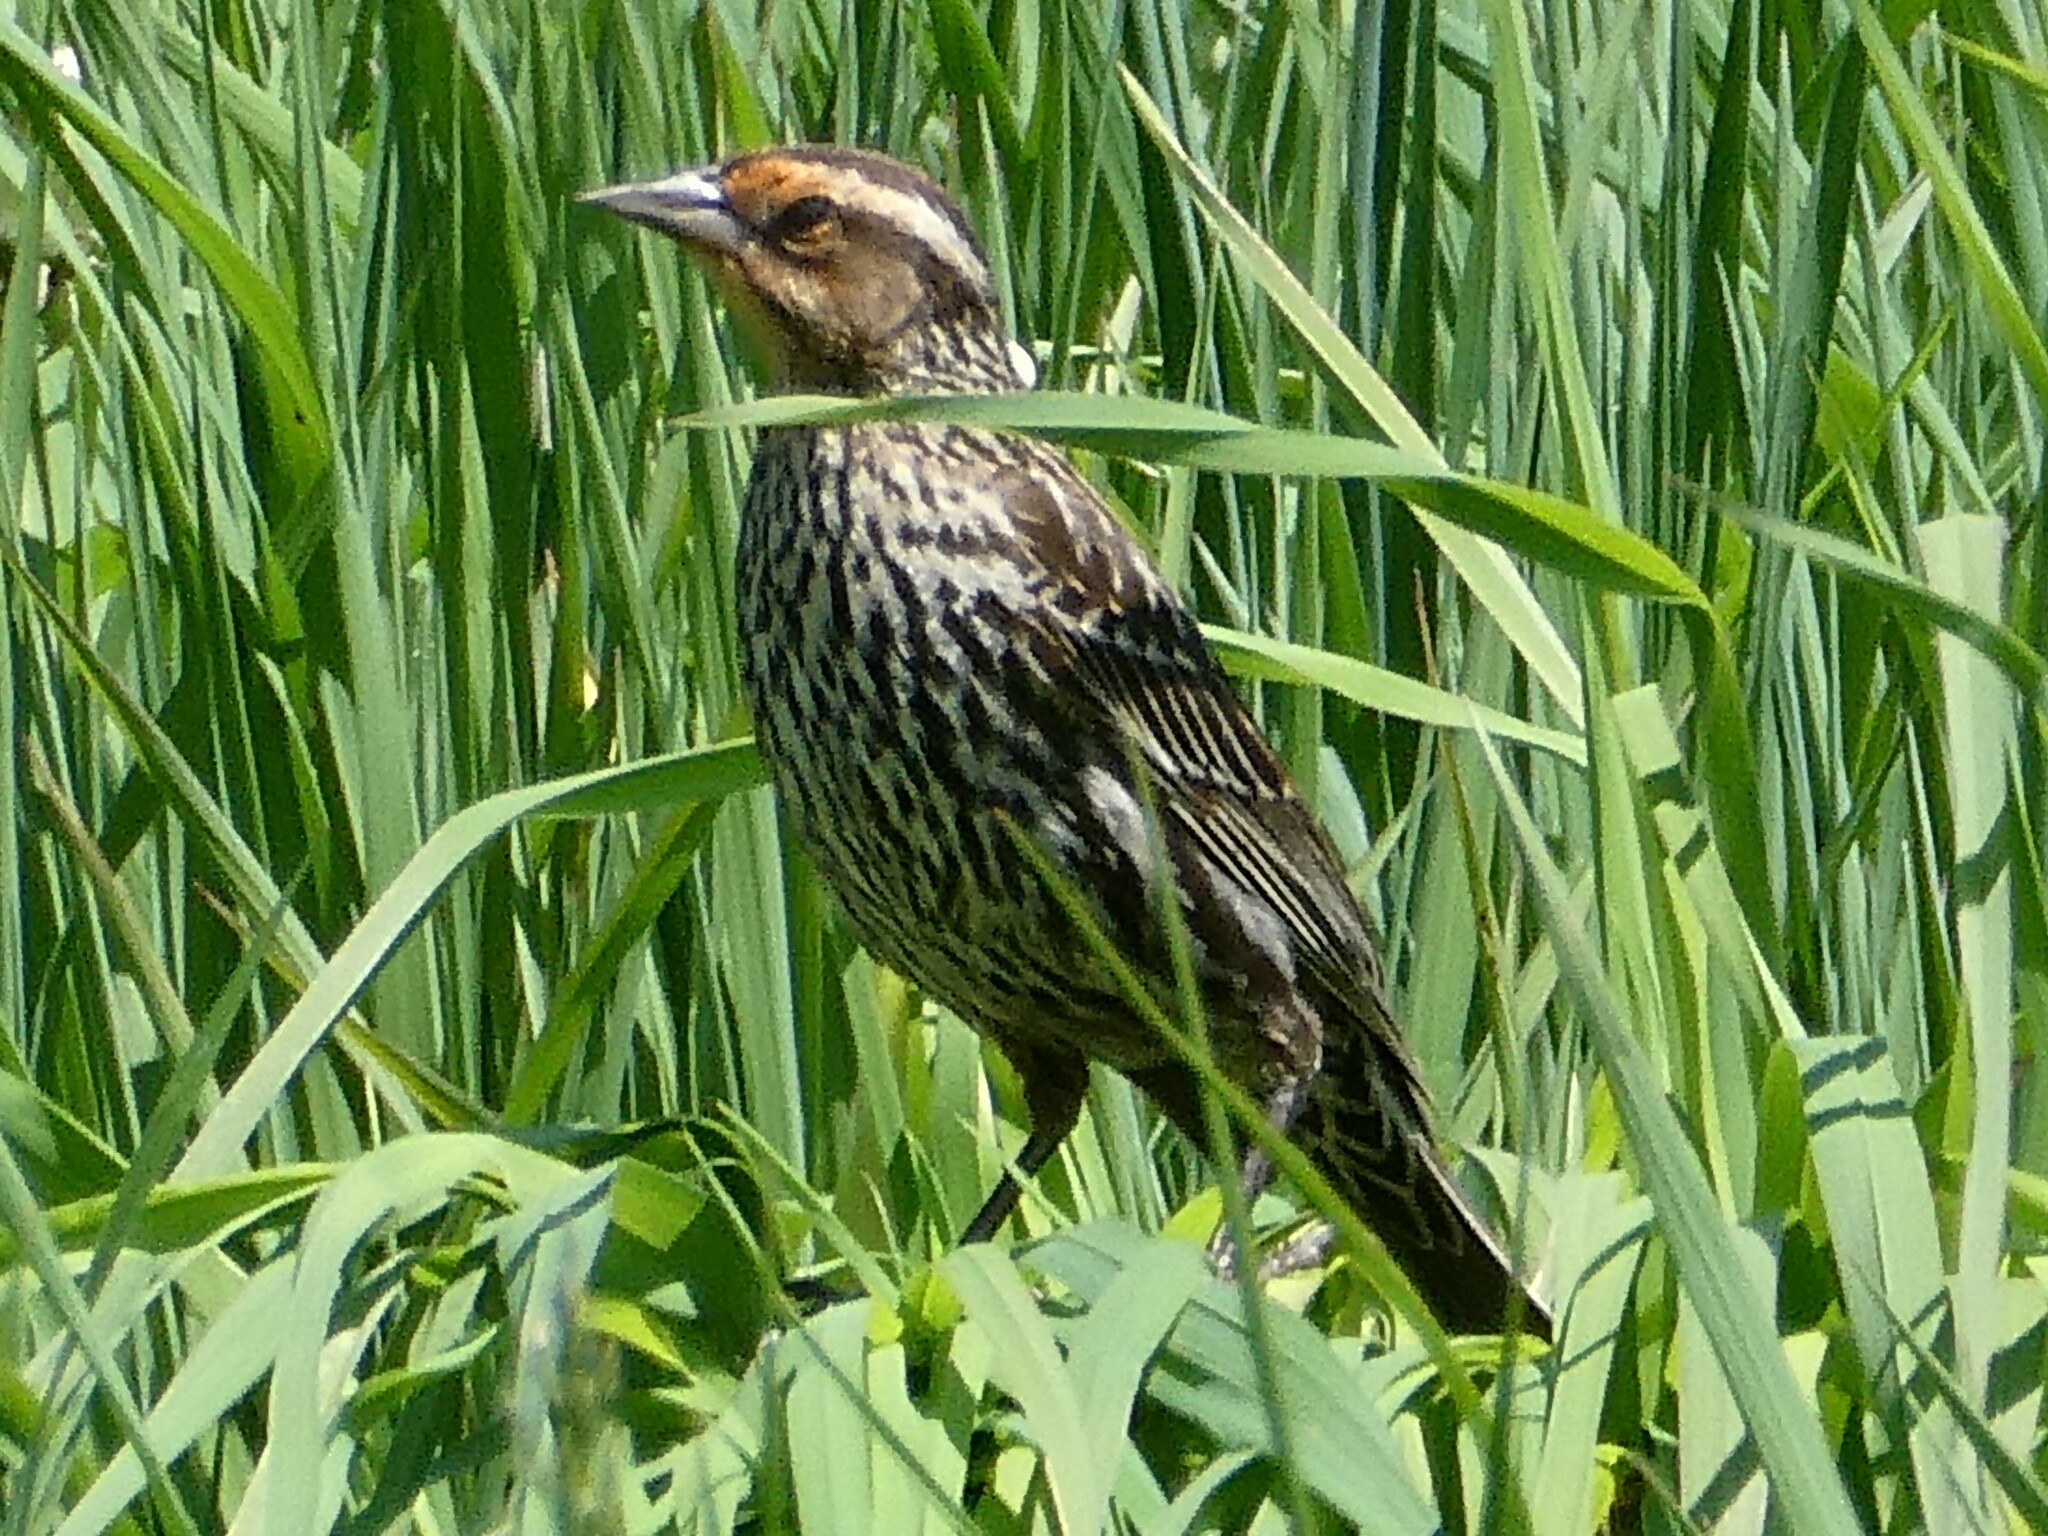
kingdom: Animalia
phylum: Chordata
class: Aves
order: Passeriformes
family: Icteridae
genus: Agelaius
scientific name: Agelaius phoeniceus
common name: Red-winged blackbird
